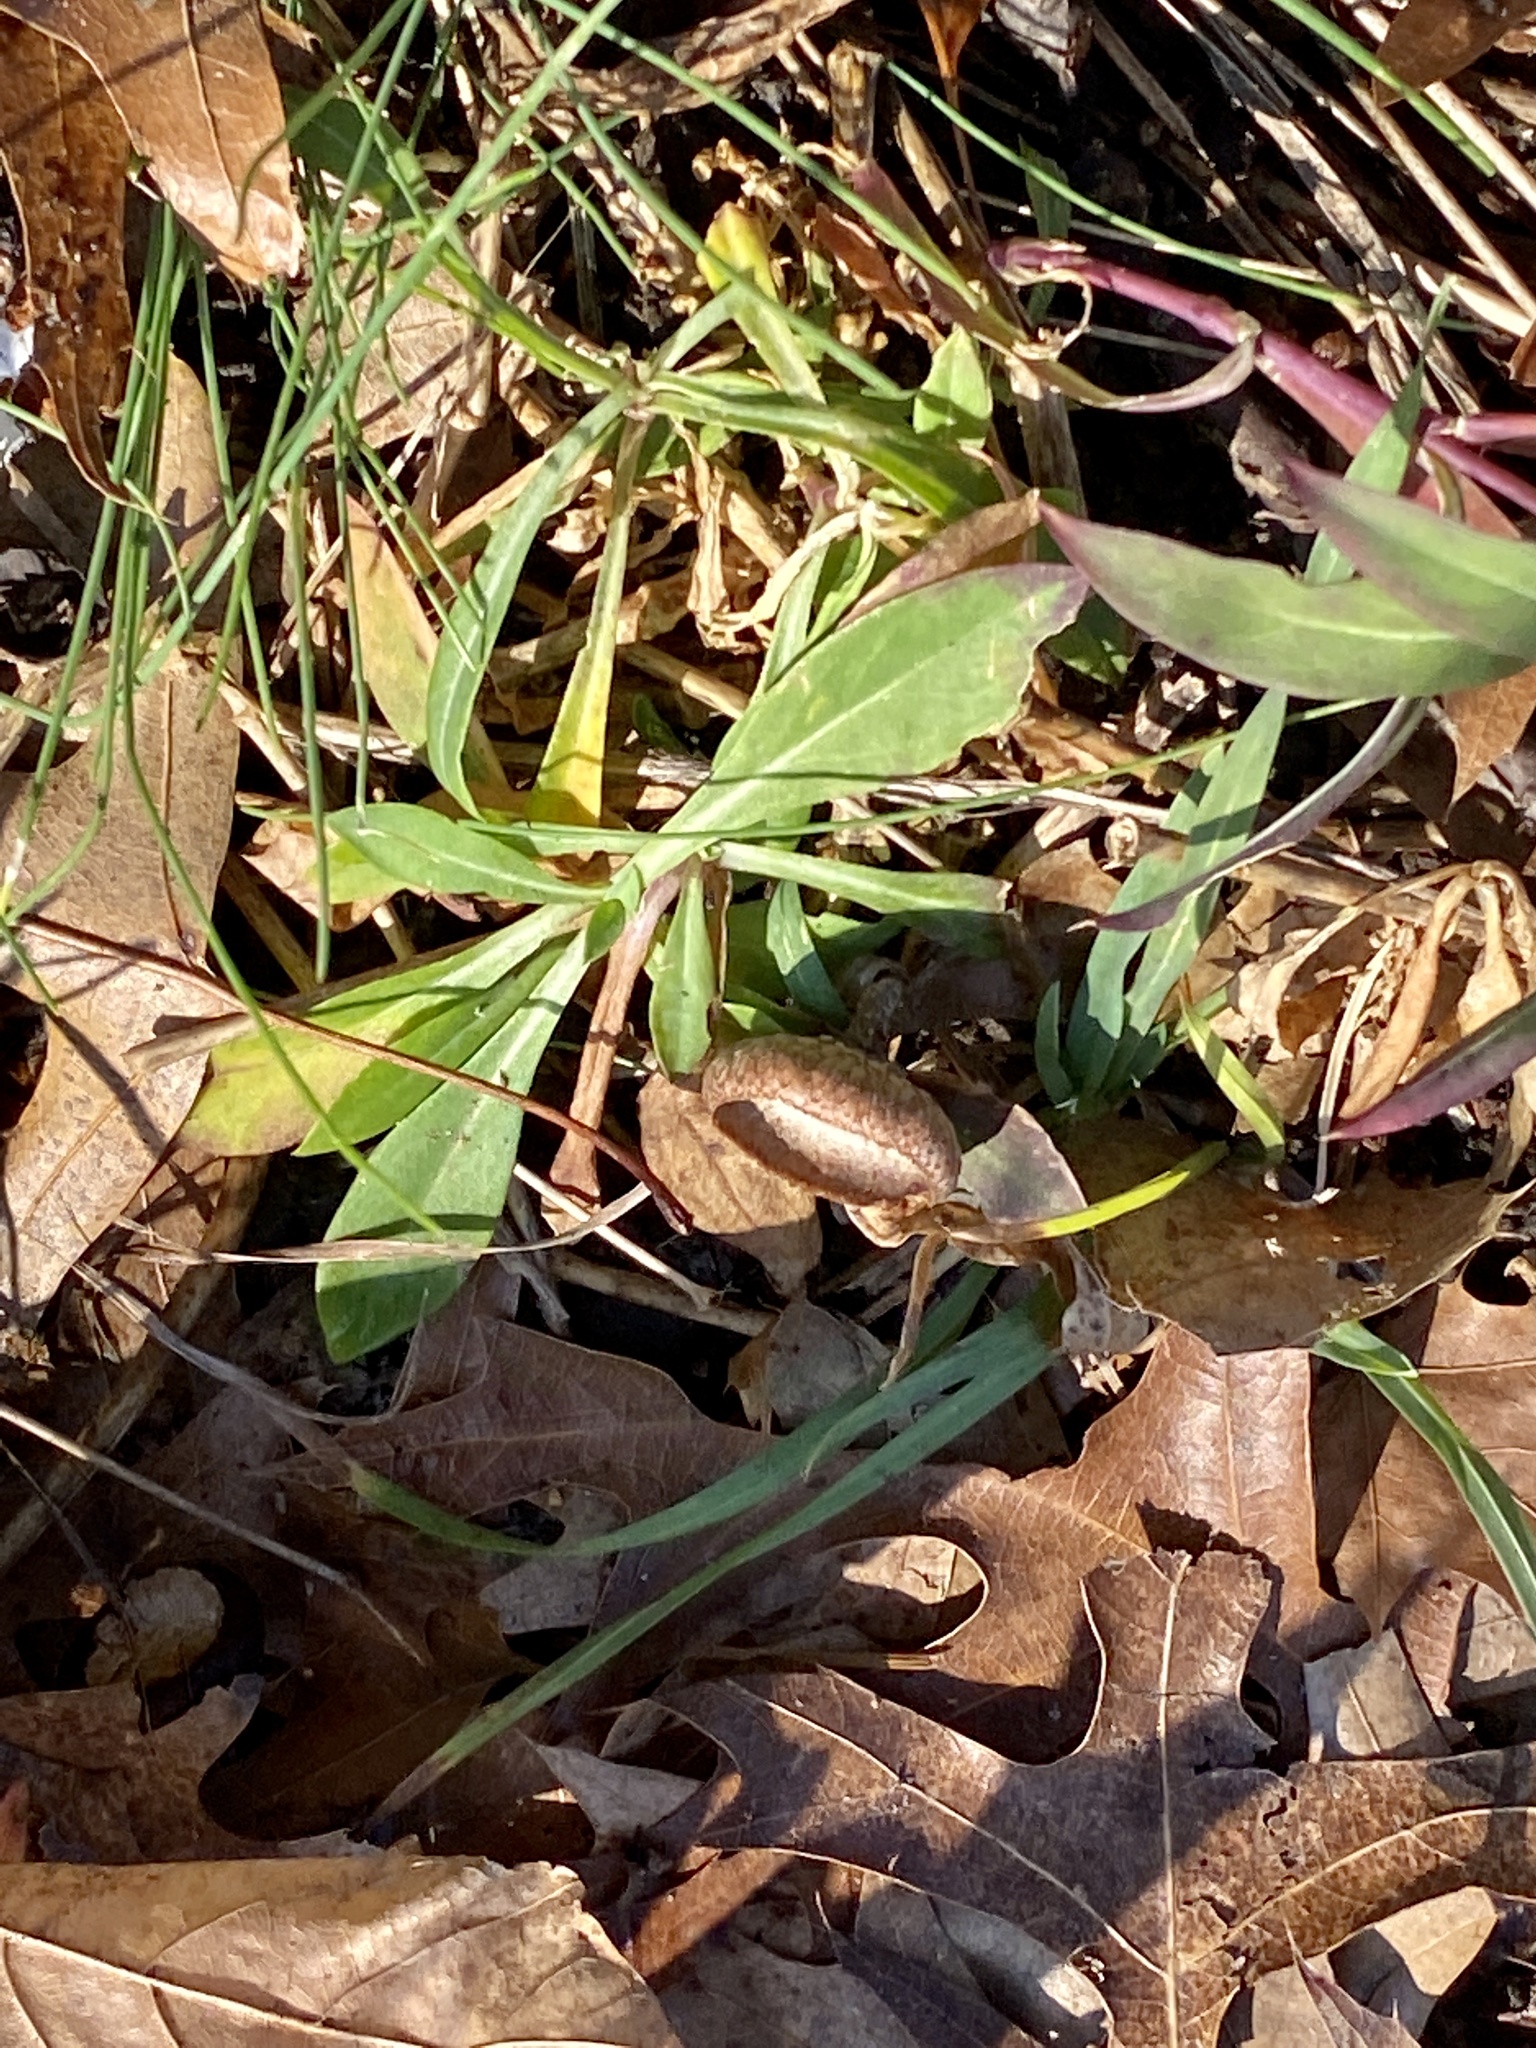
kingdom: Plantae
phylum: Tracheophyta
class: Magnoliopsida
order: Caryophyllales
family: Caryophyllaceae
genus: Silene
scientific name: Silene vulgaris
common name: Bladder campion
